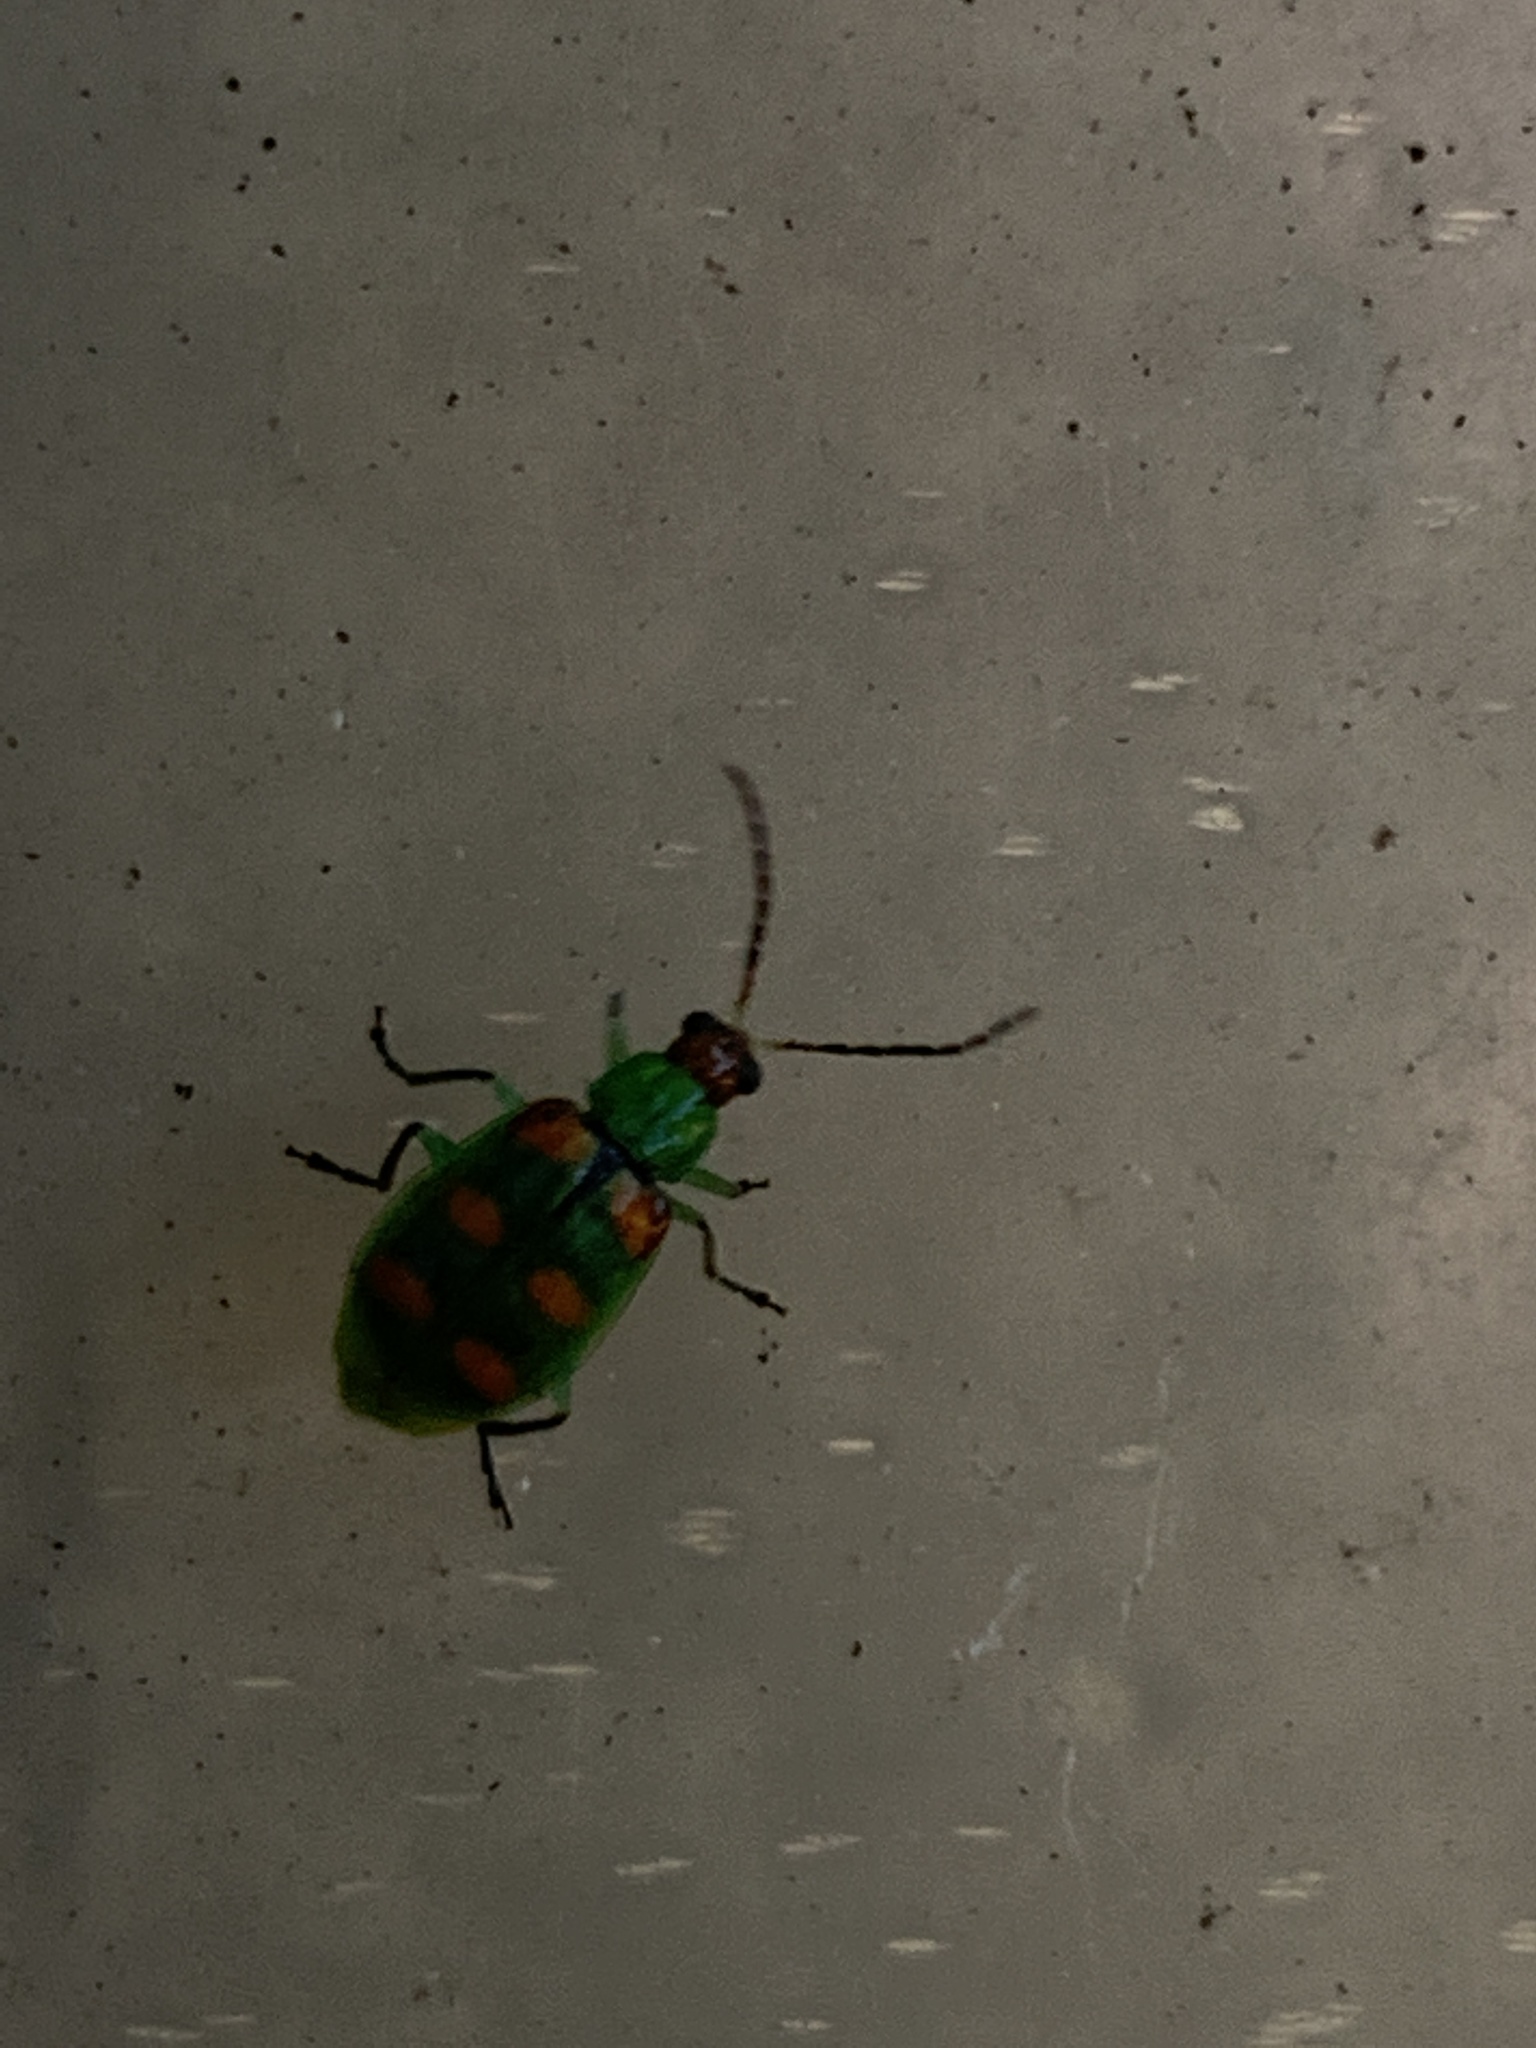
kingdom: Animalia
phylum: Arthropoda
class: Insecta
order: Coleoptera
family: Chrysomelidae
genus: Diabrotica
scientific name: Diabrotica speciosa
